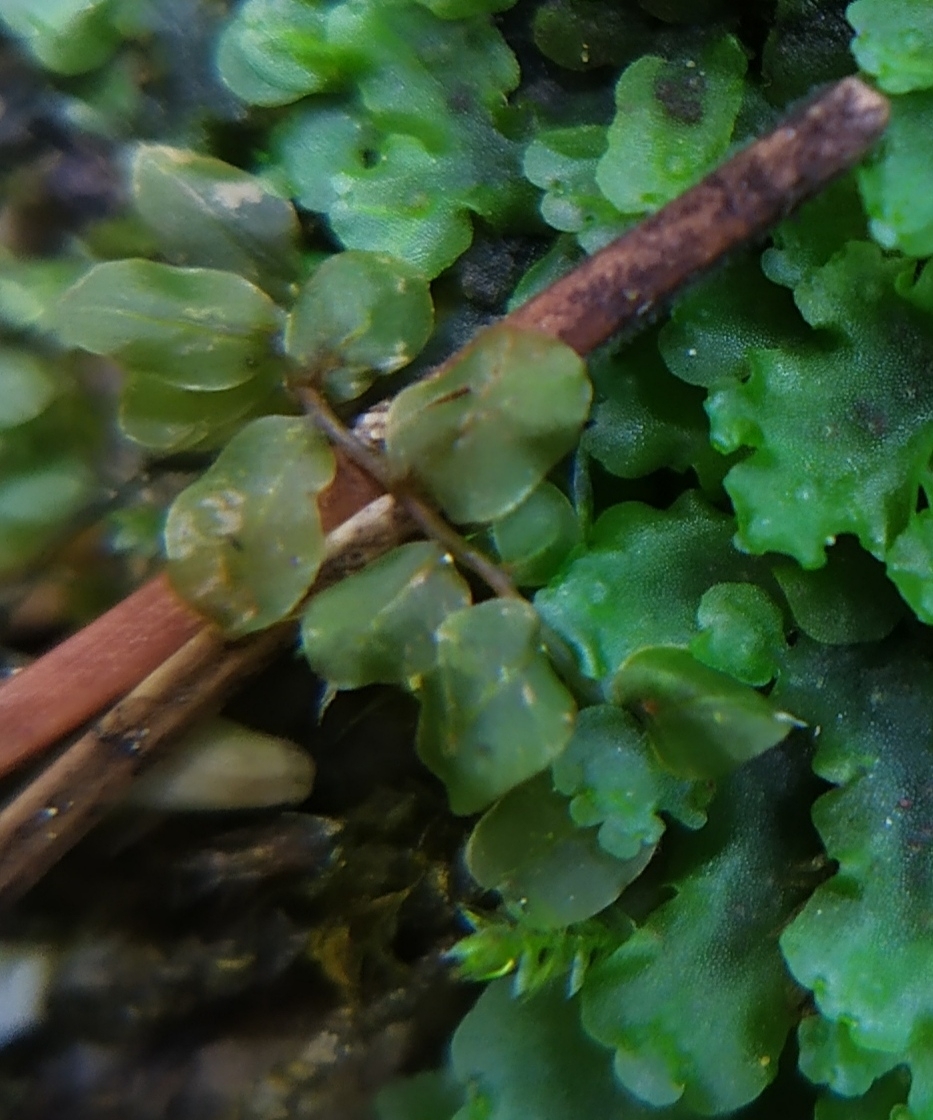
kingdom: Plantae
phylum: Bryophyta
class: Bryopsida
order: Bryales
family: Mniaceae
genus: Plagiomnium
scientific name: Plagiomnium rostratum
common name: Long-beaked leafy moss
